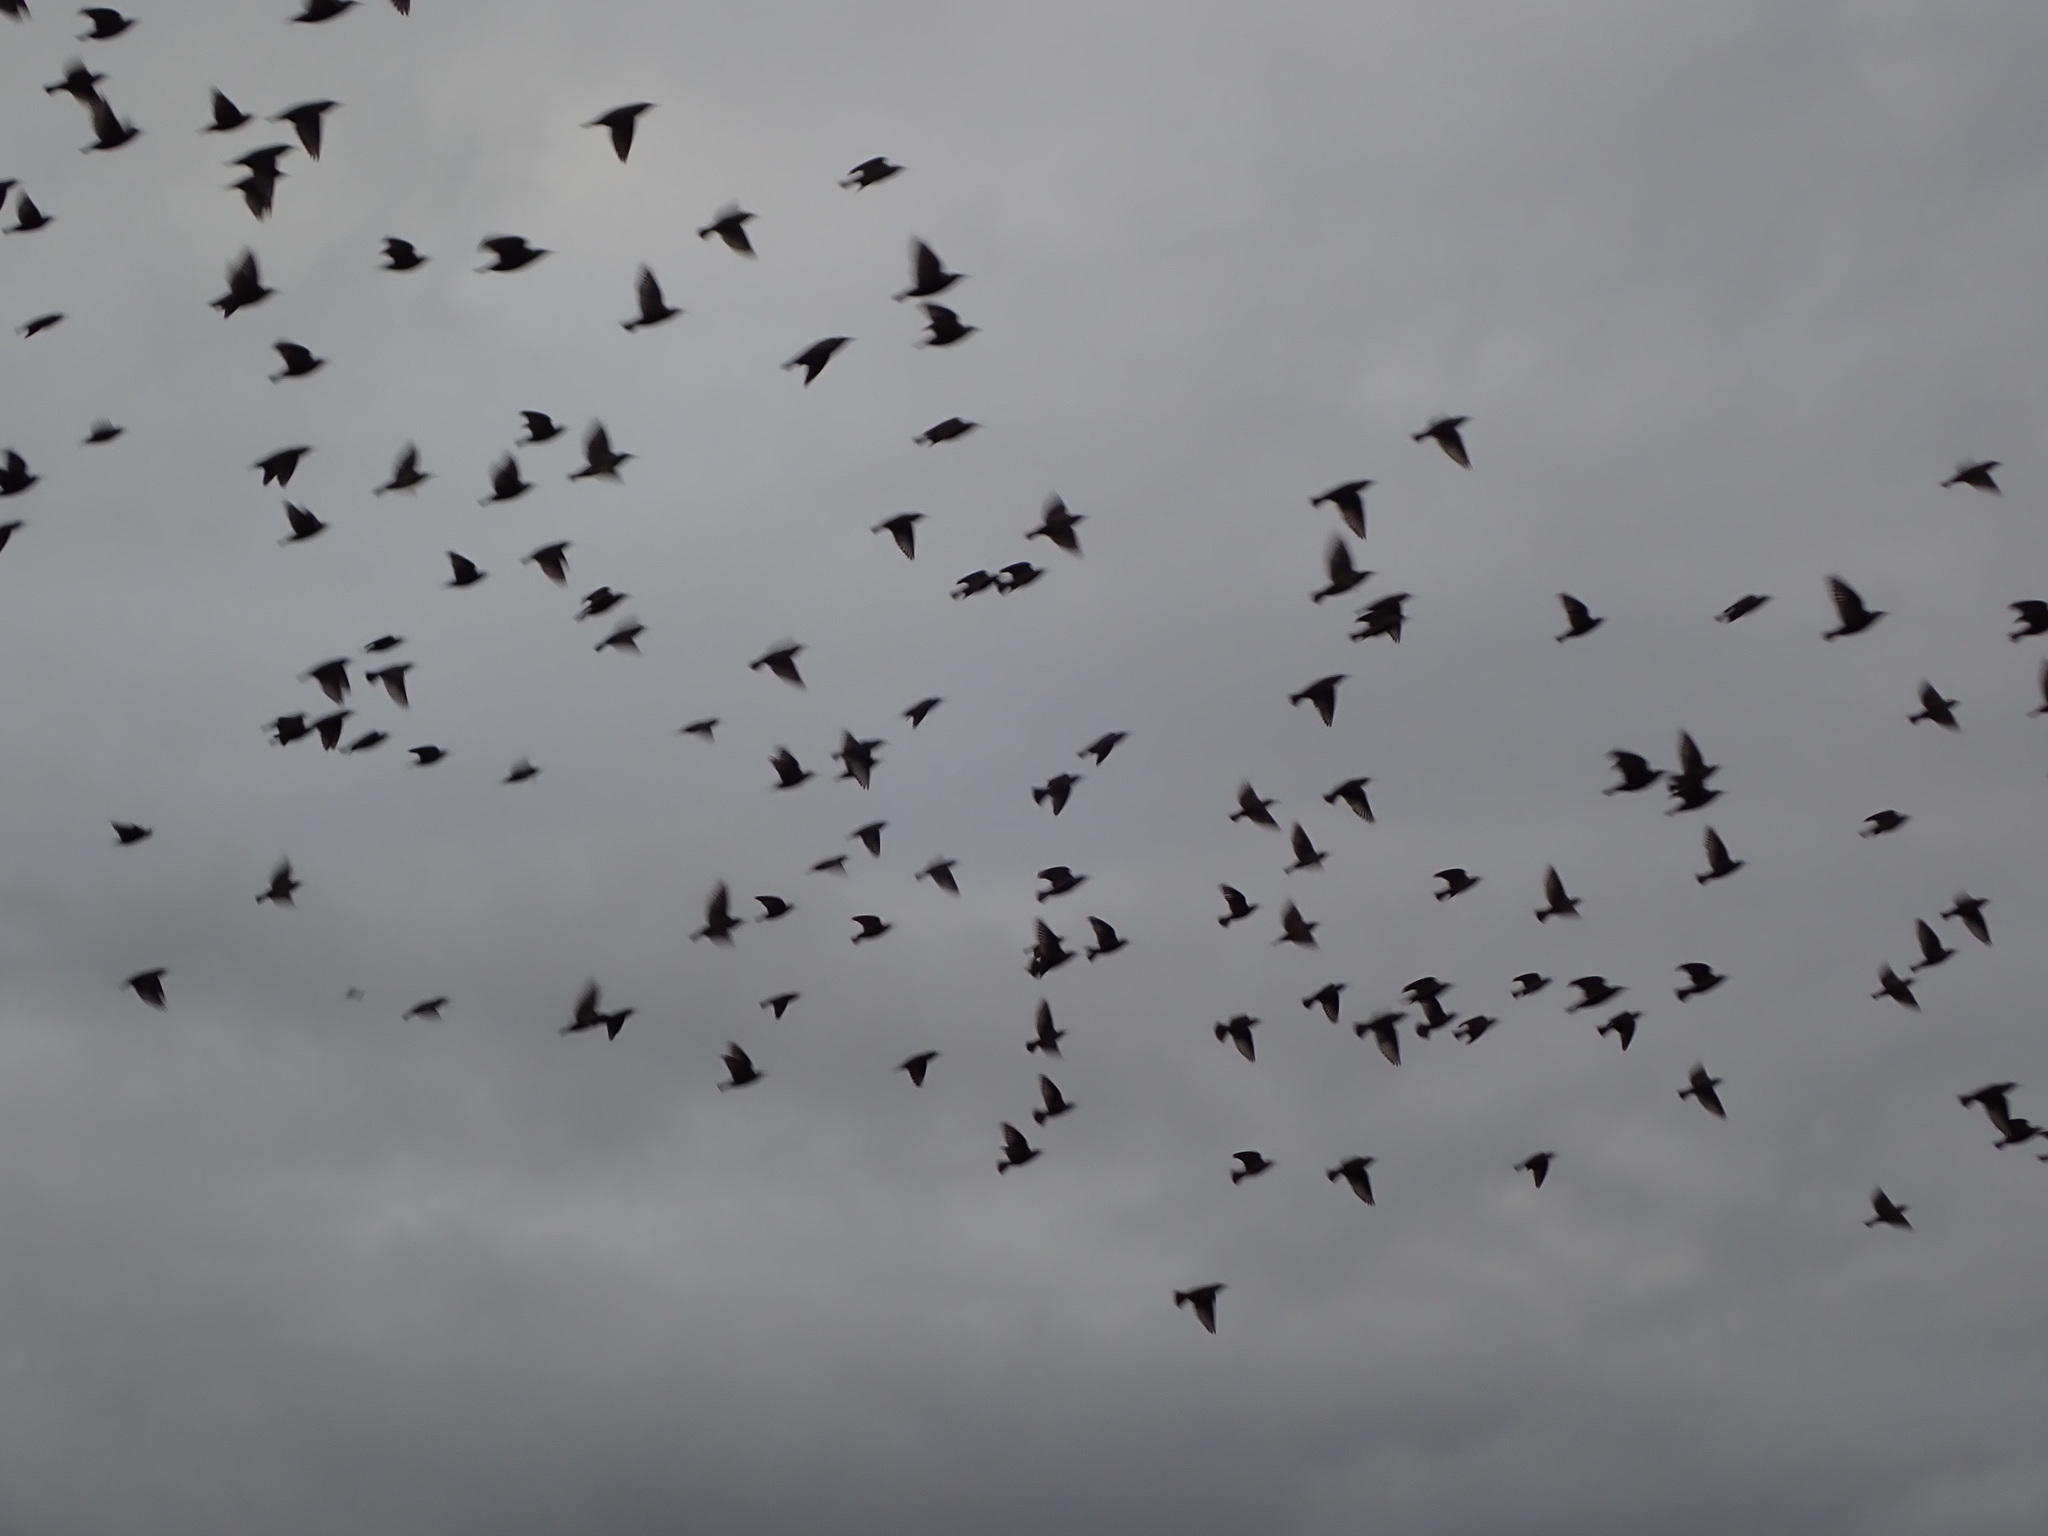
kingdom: Animalia
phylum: Chordata
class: Aves
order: Passeriformes
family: Sturnidae
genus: Sturnus
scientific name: Sturnus vulgaris
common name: Common starling
